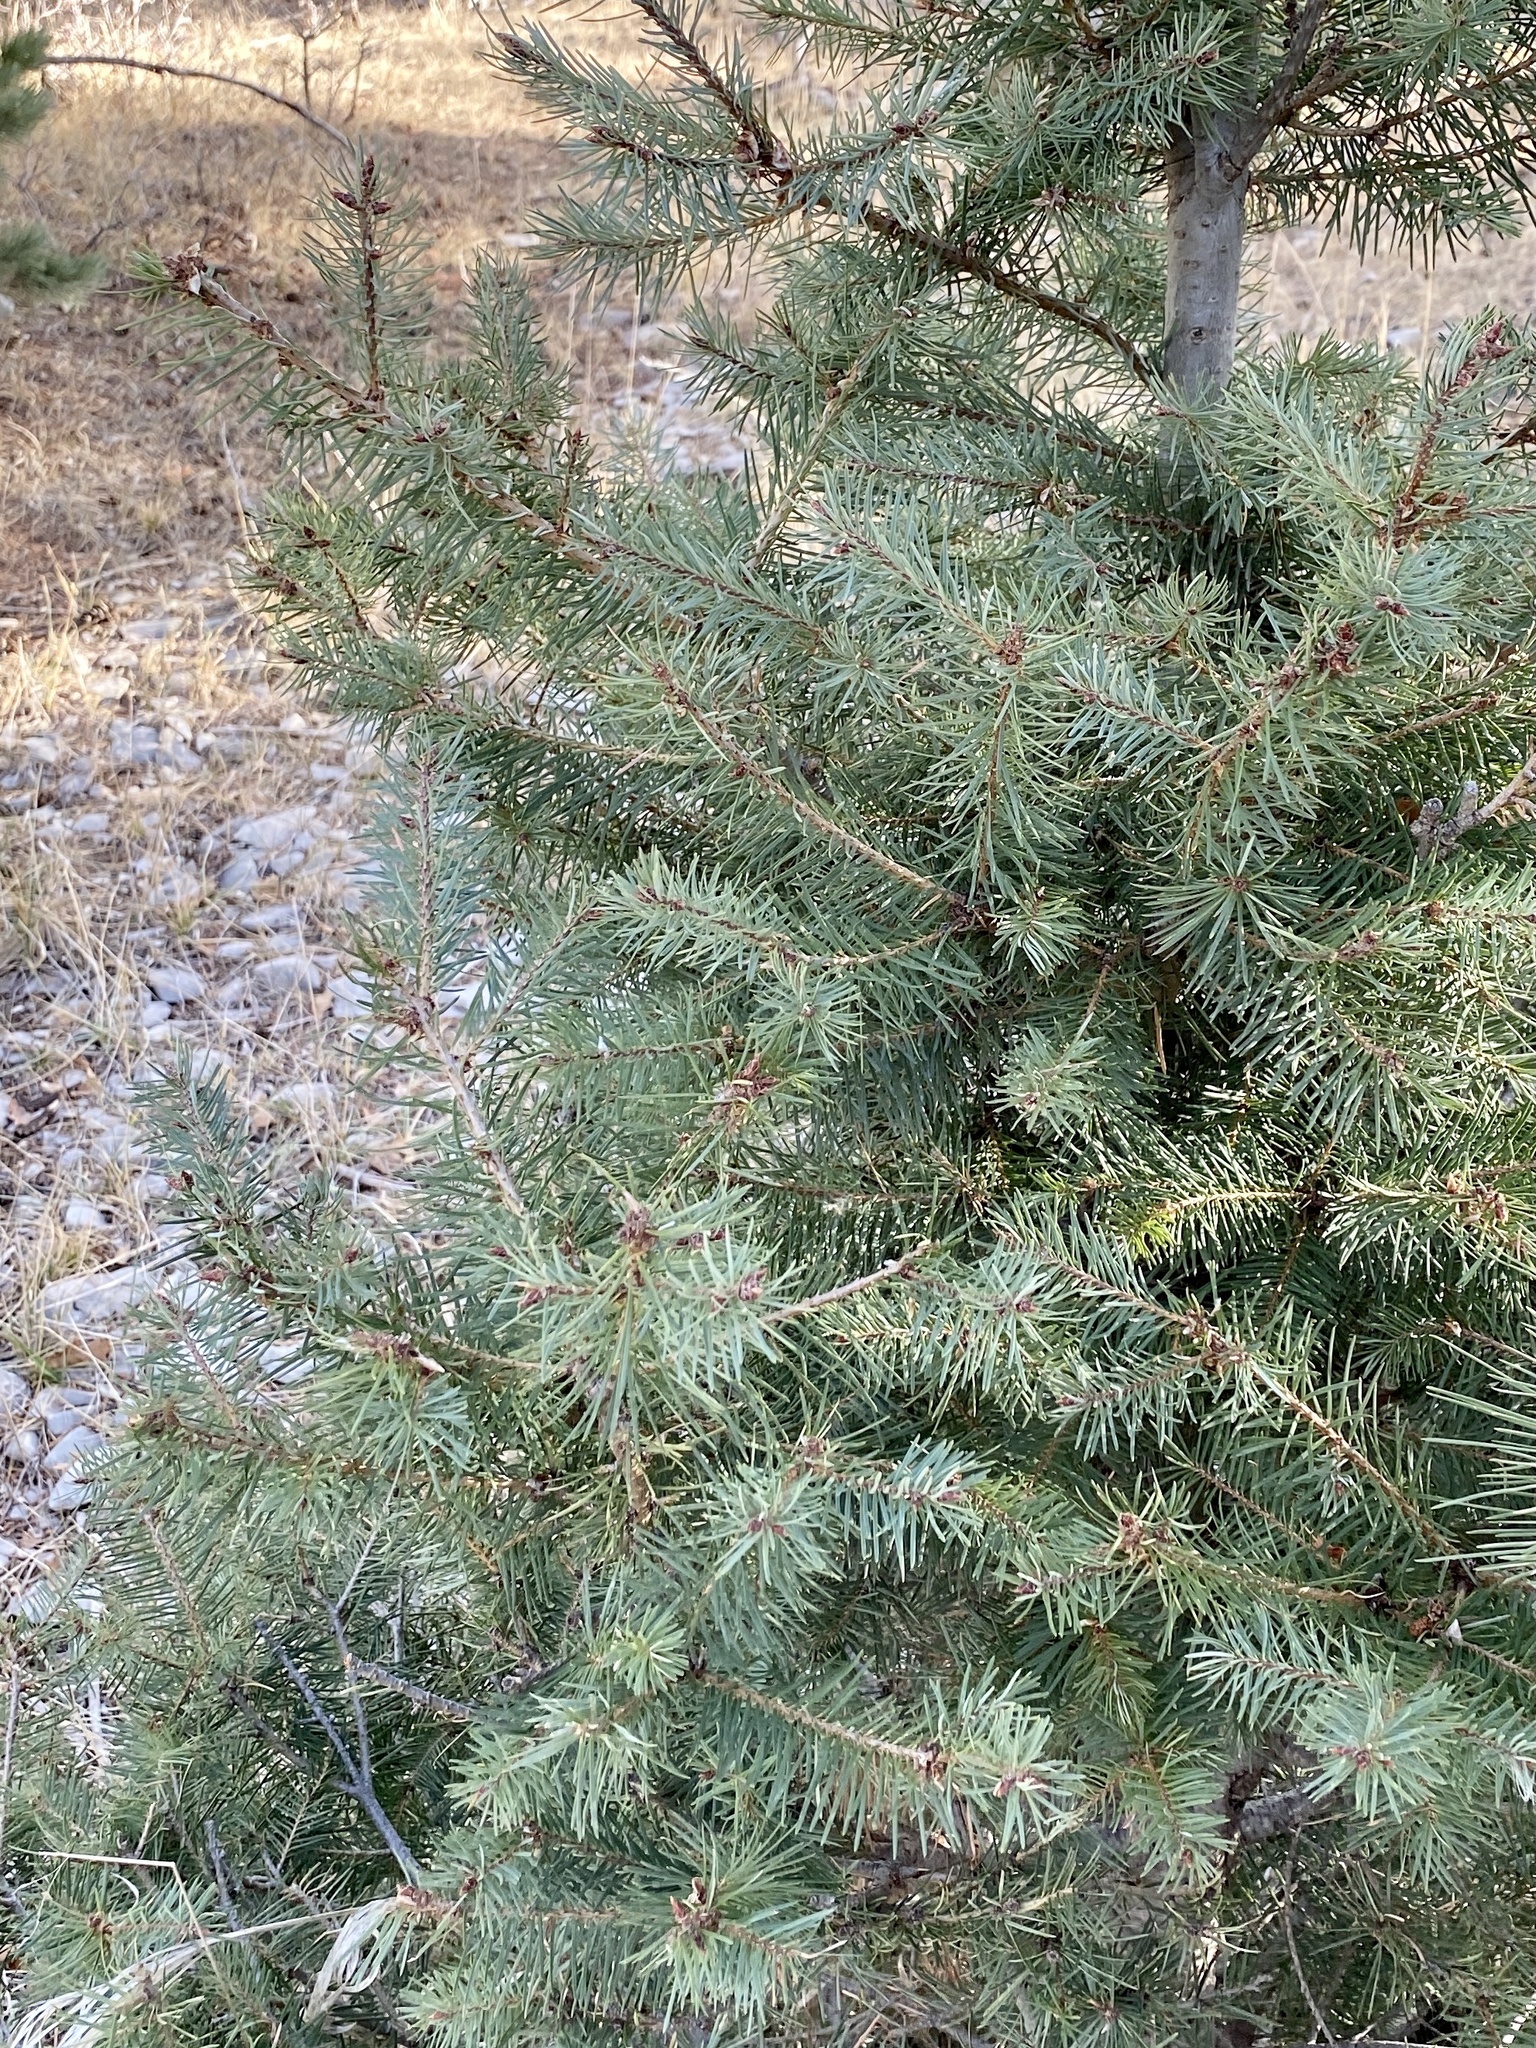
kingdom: Plantae
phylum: Tracheophyta
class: Pinopsida
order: Pinales
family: Pinaceae
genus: Pseudotsuga
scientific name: Pseudotsuga menziesii
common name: Douglas fir
